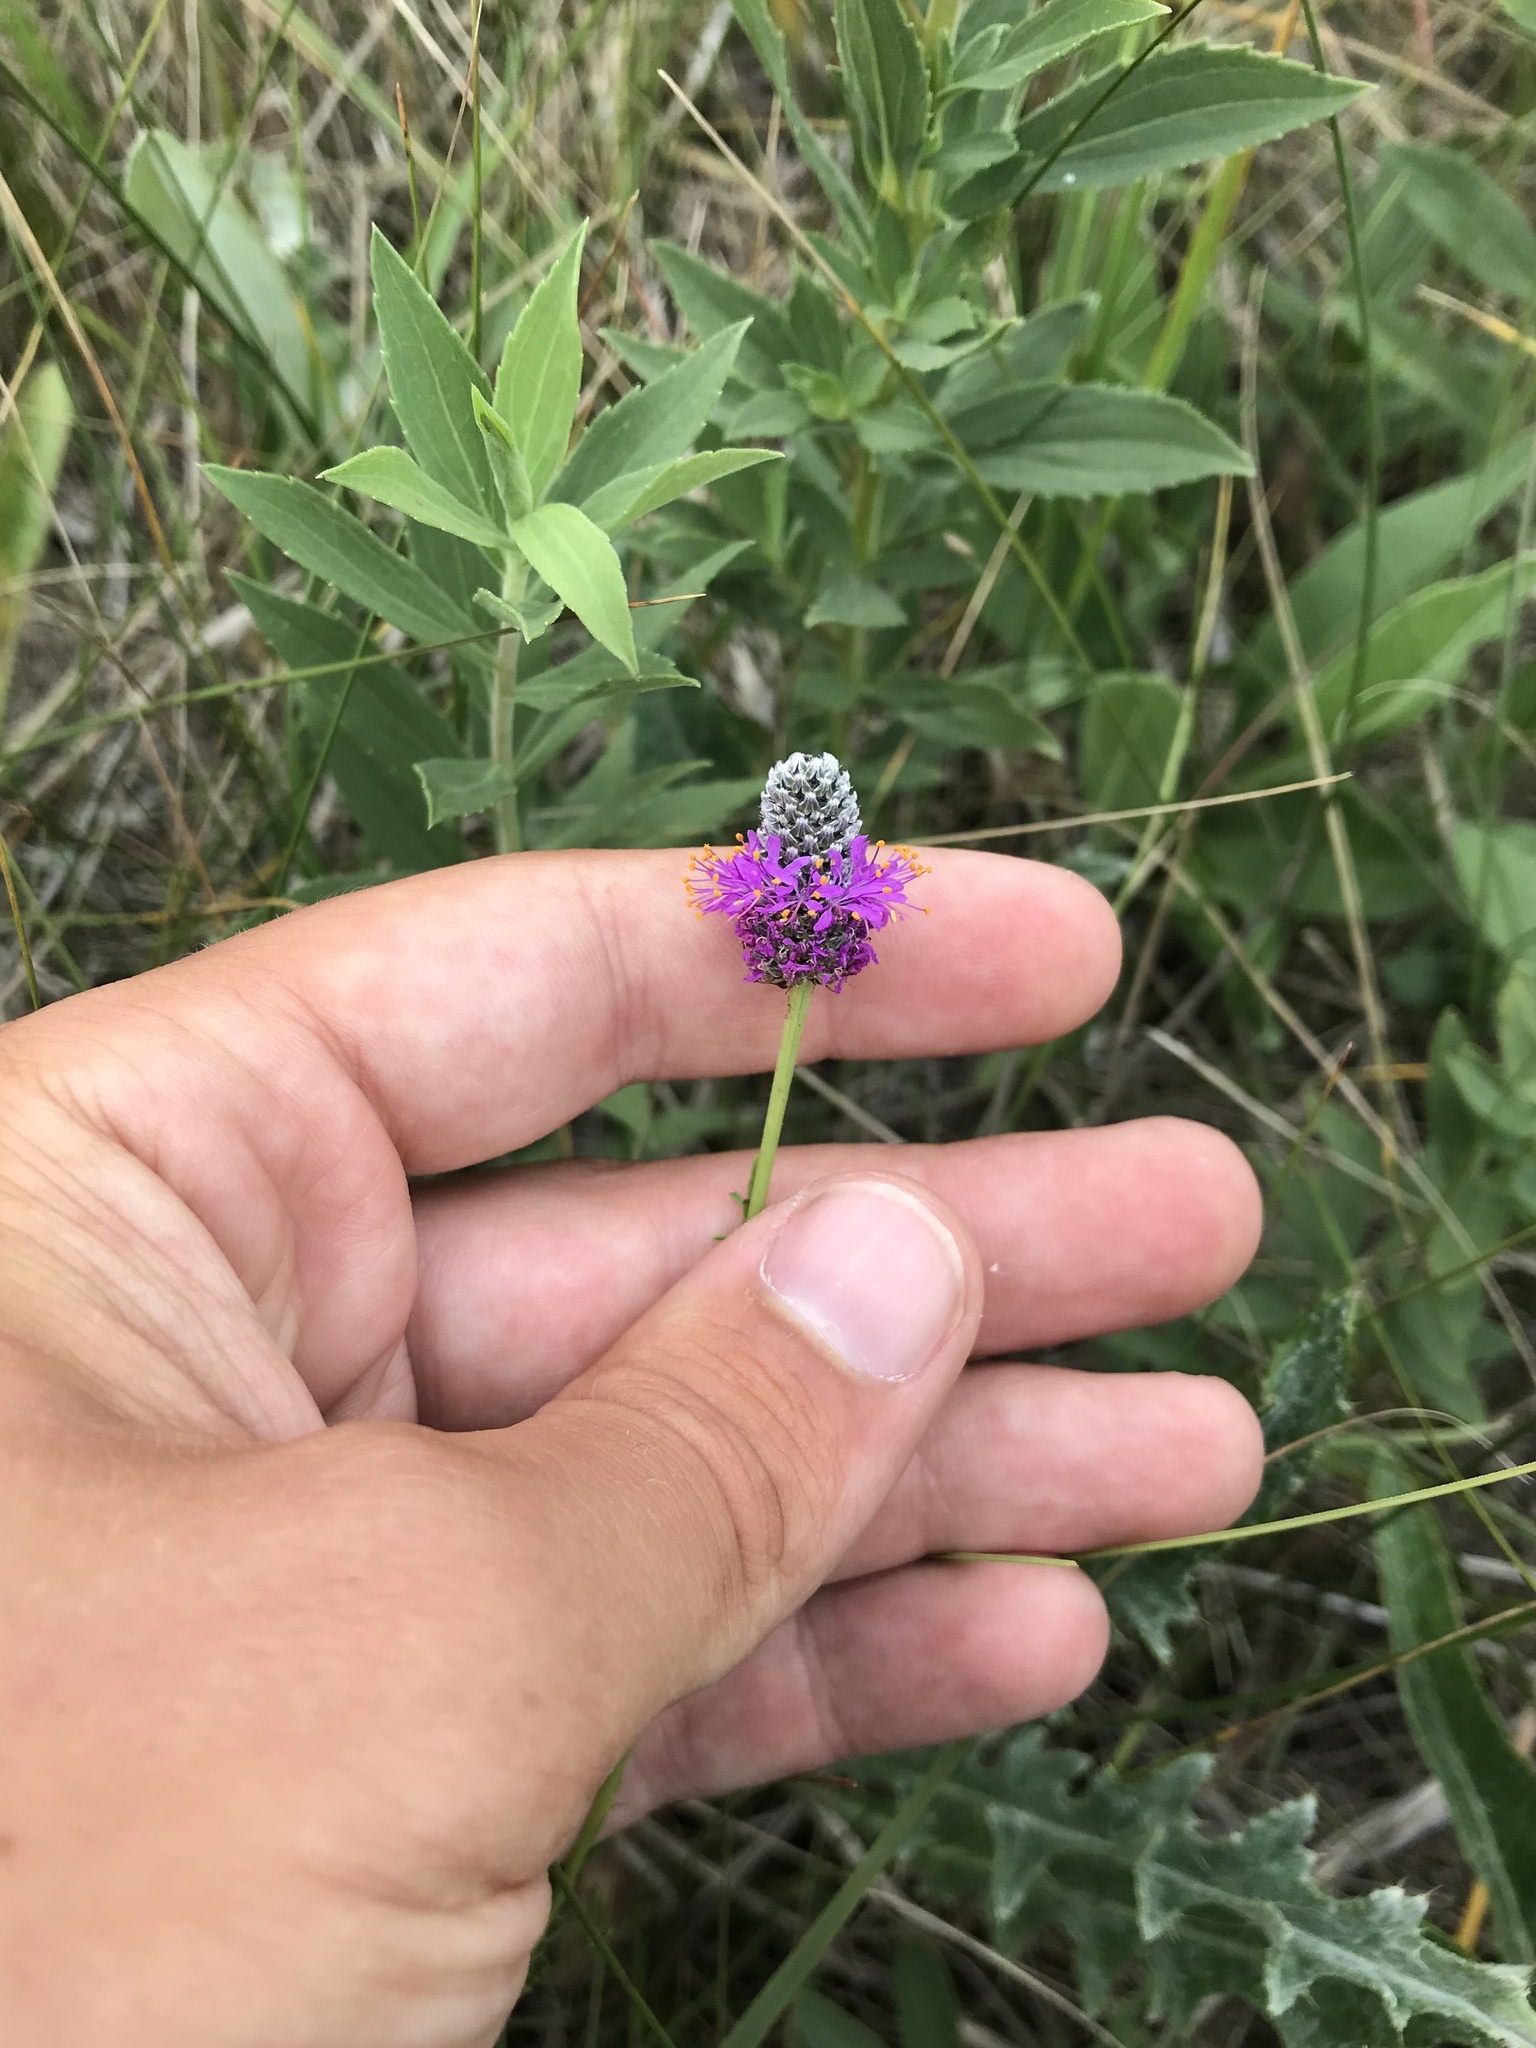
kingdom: Plantae
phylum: Tracheophyta
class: Magnoliopsida
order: Fabales
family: Fabaceae
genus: Dalea
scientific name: Dalea purpurea
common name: Purple prairie-clover
